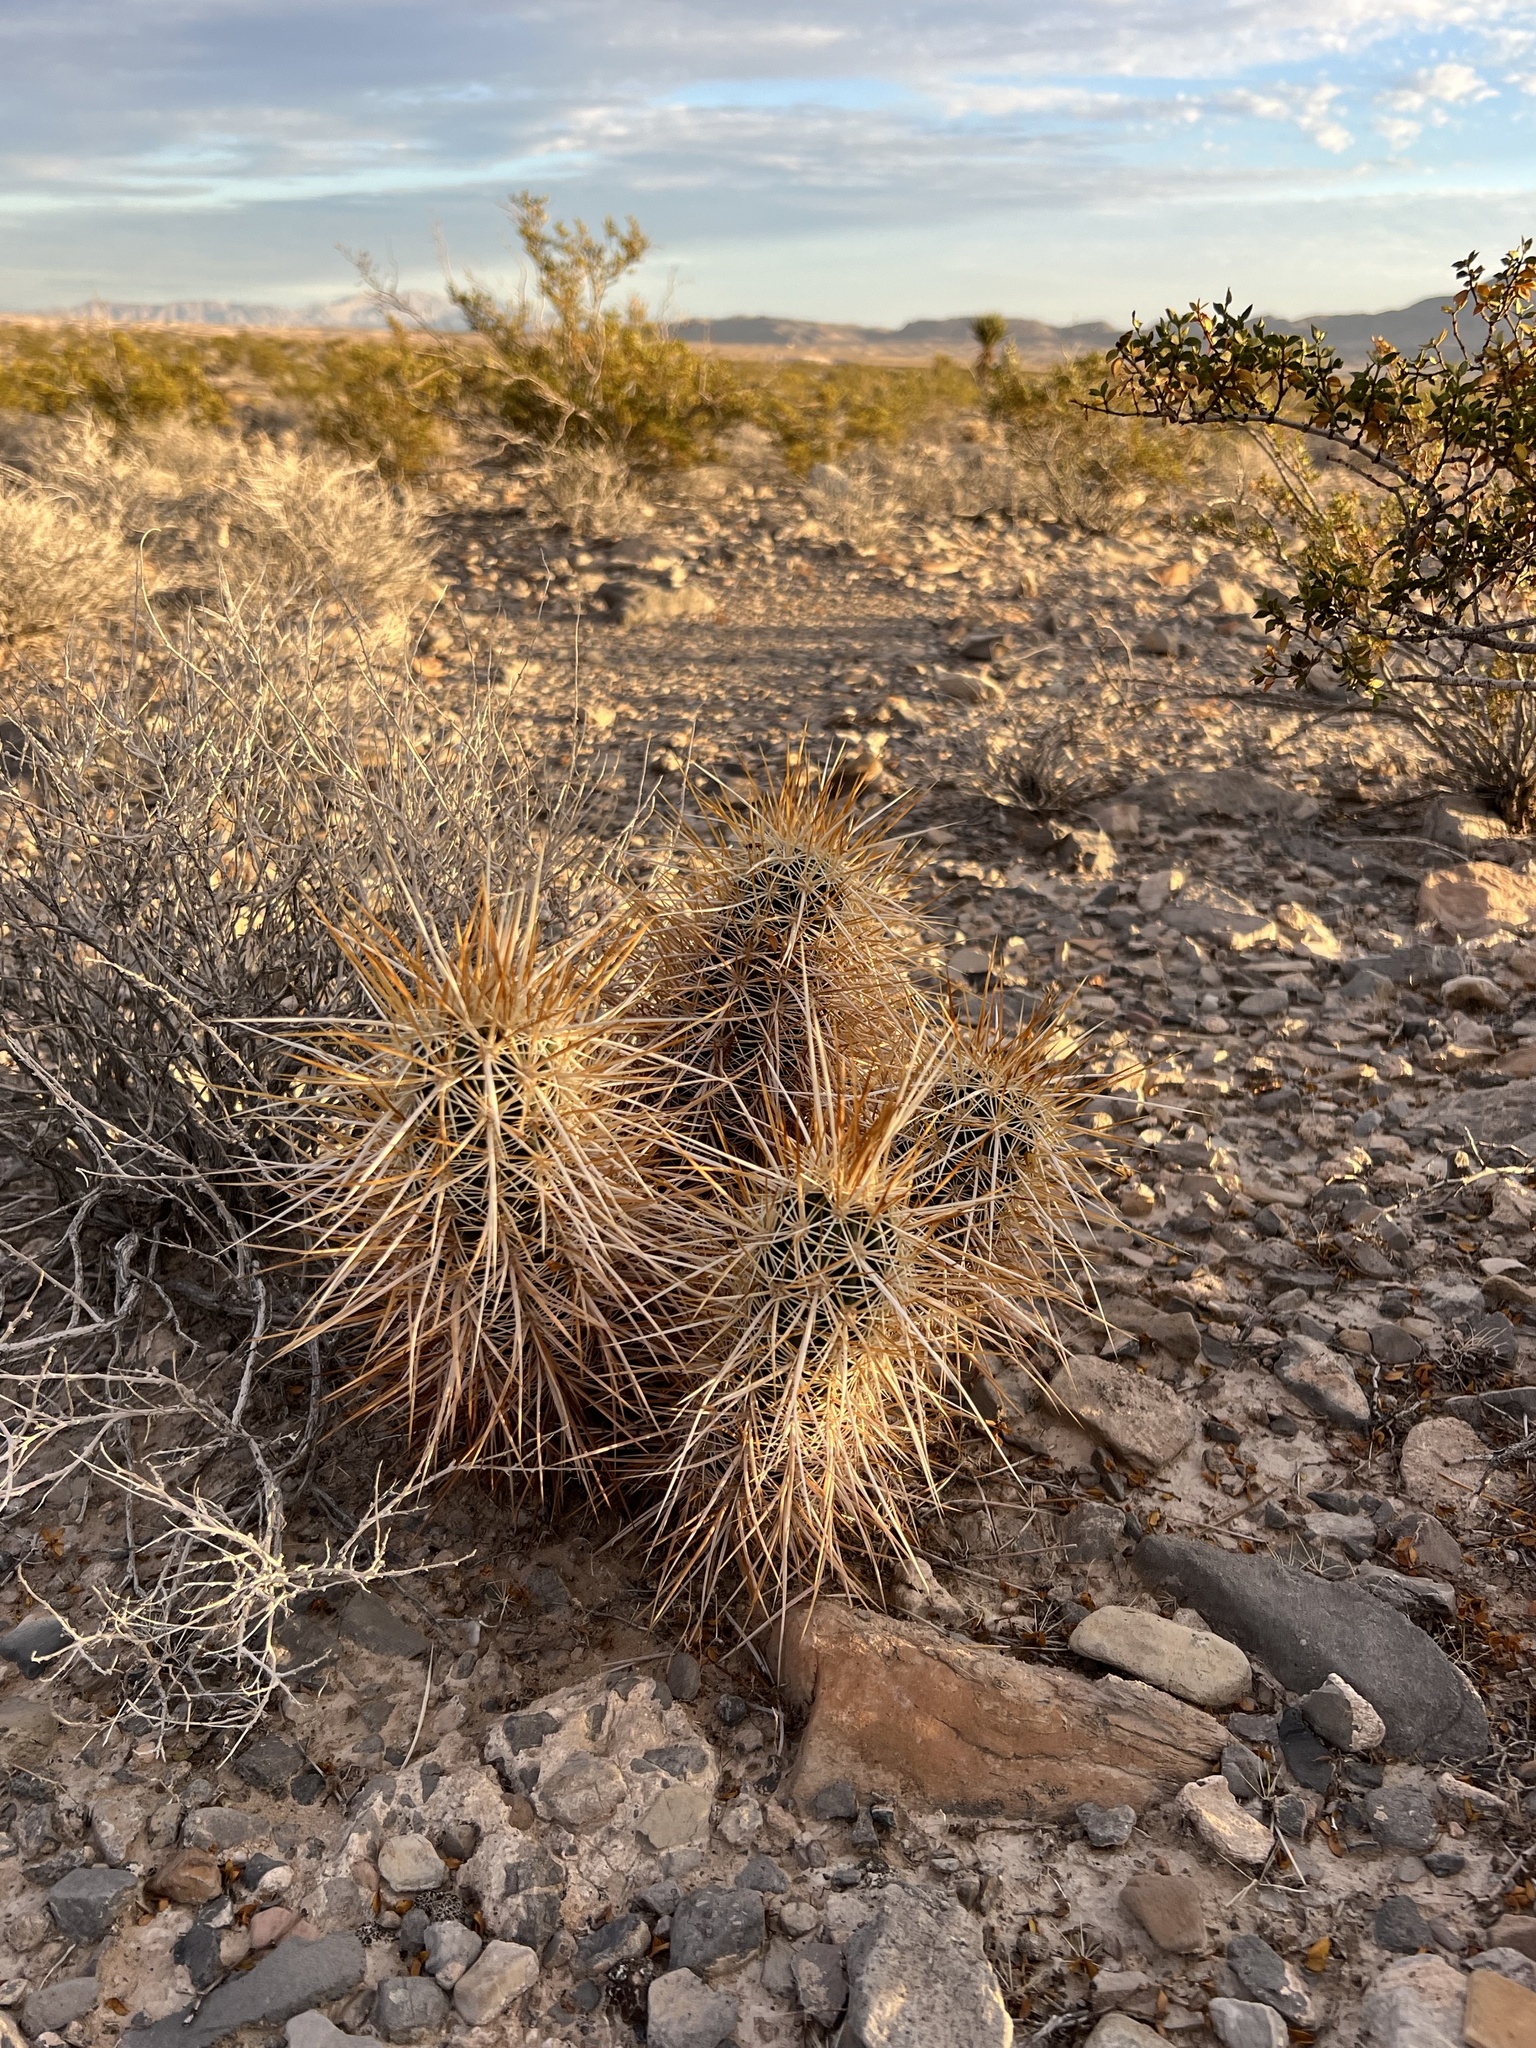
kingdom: Plantae
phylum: Tracheophyta
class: Magnoliopsida
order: Caryophyllales
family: Cactaceae
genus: Echinocereus
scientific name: Echinocereus engelmannii
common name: Engelmann's hedgehog cactus
